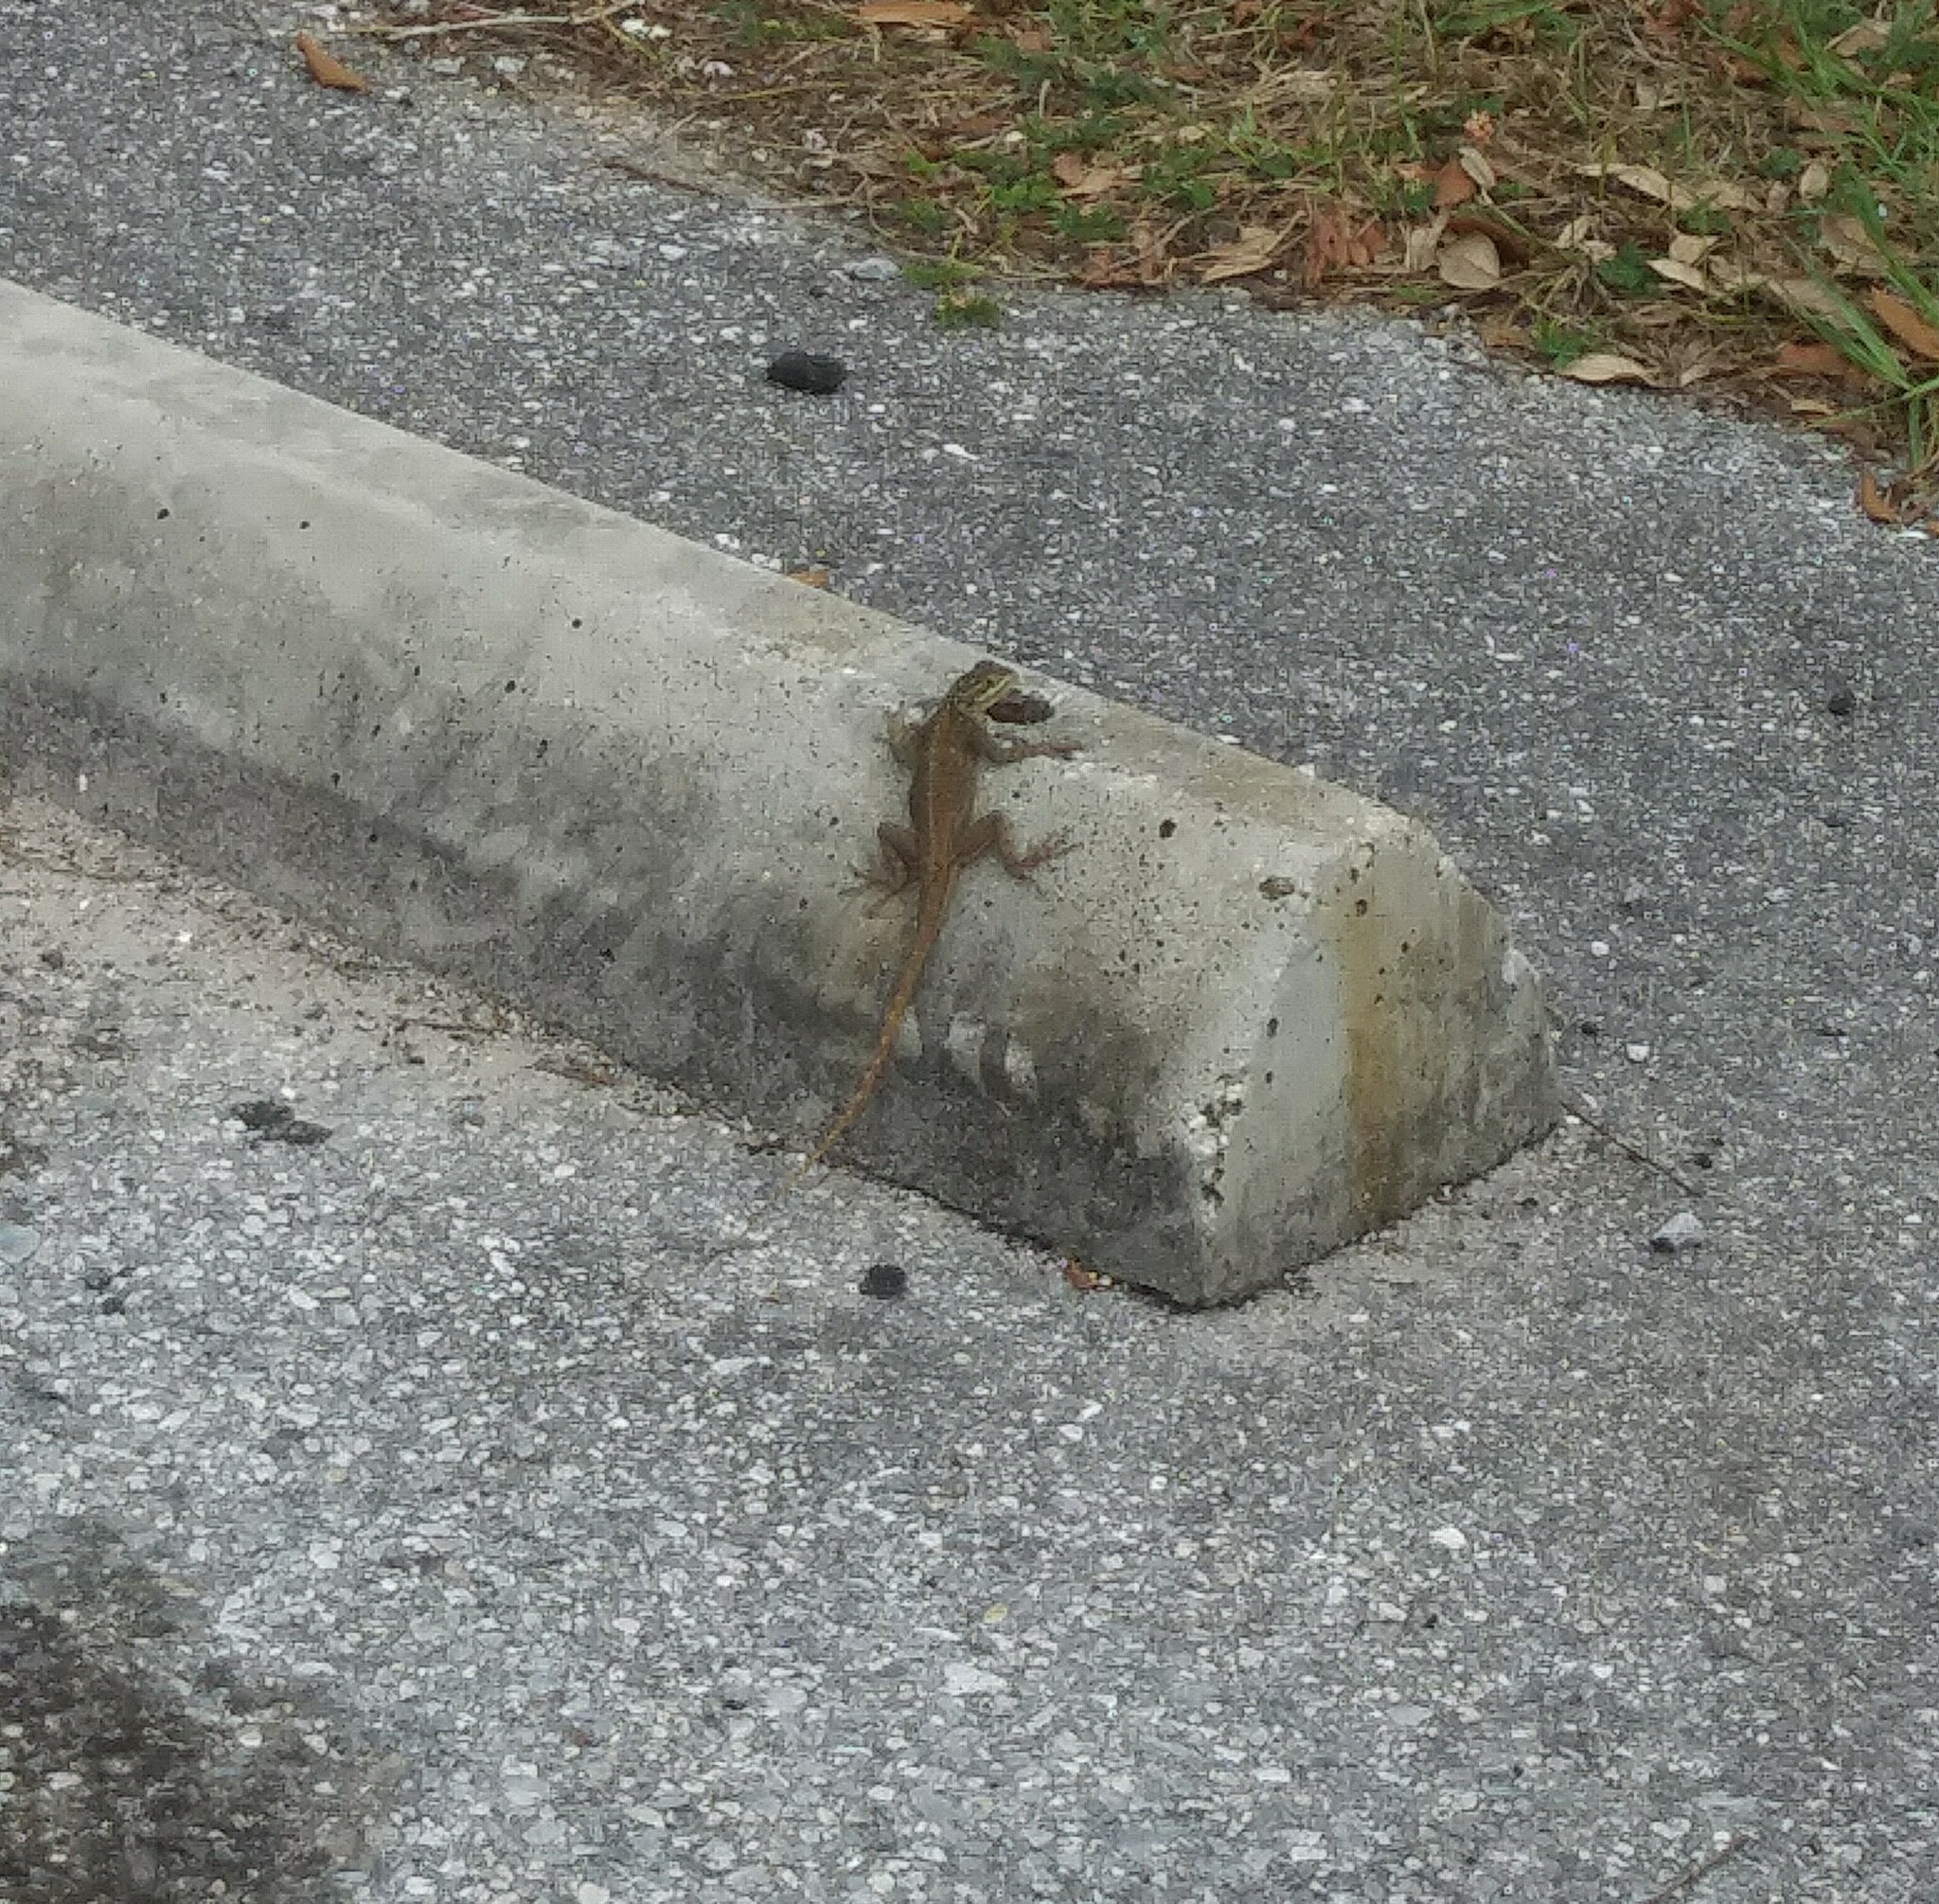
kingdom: Animalia
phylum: Chordata
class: Squamata
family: Agamidae
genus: Agama
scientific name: Agama picticauda
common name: Red-headed agama
